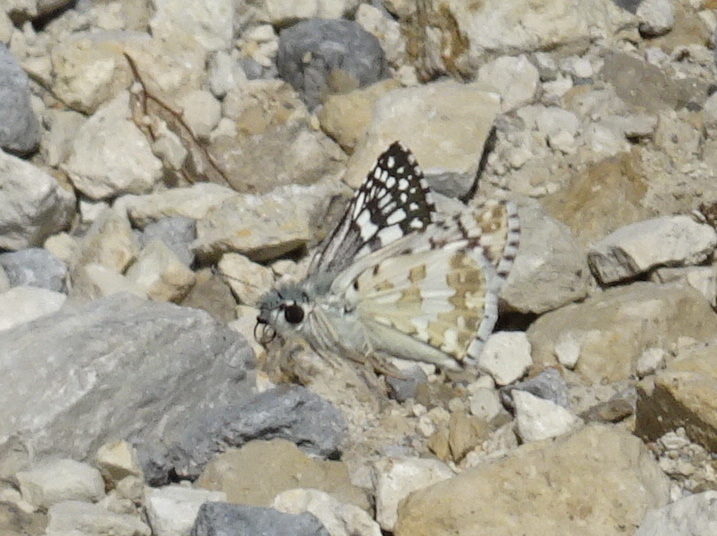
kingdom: Animalia
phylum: Arthropoda
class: Insecta
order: Lepidoptera
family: Hesperiidae
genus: Burnsius
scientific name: Burnsius communis
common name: Common checkered-skipper
